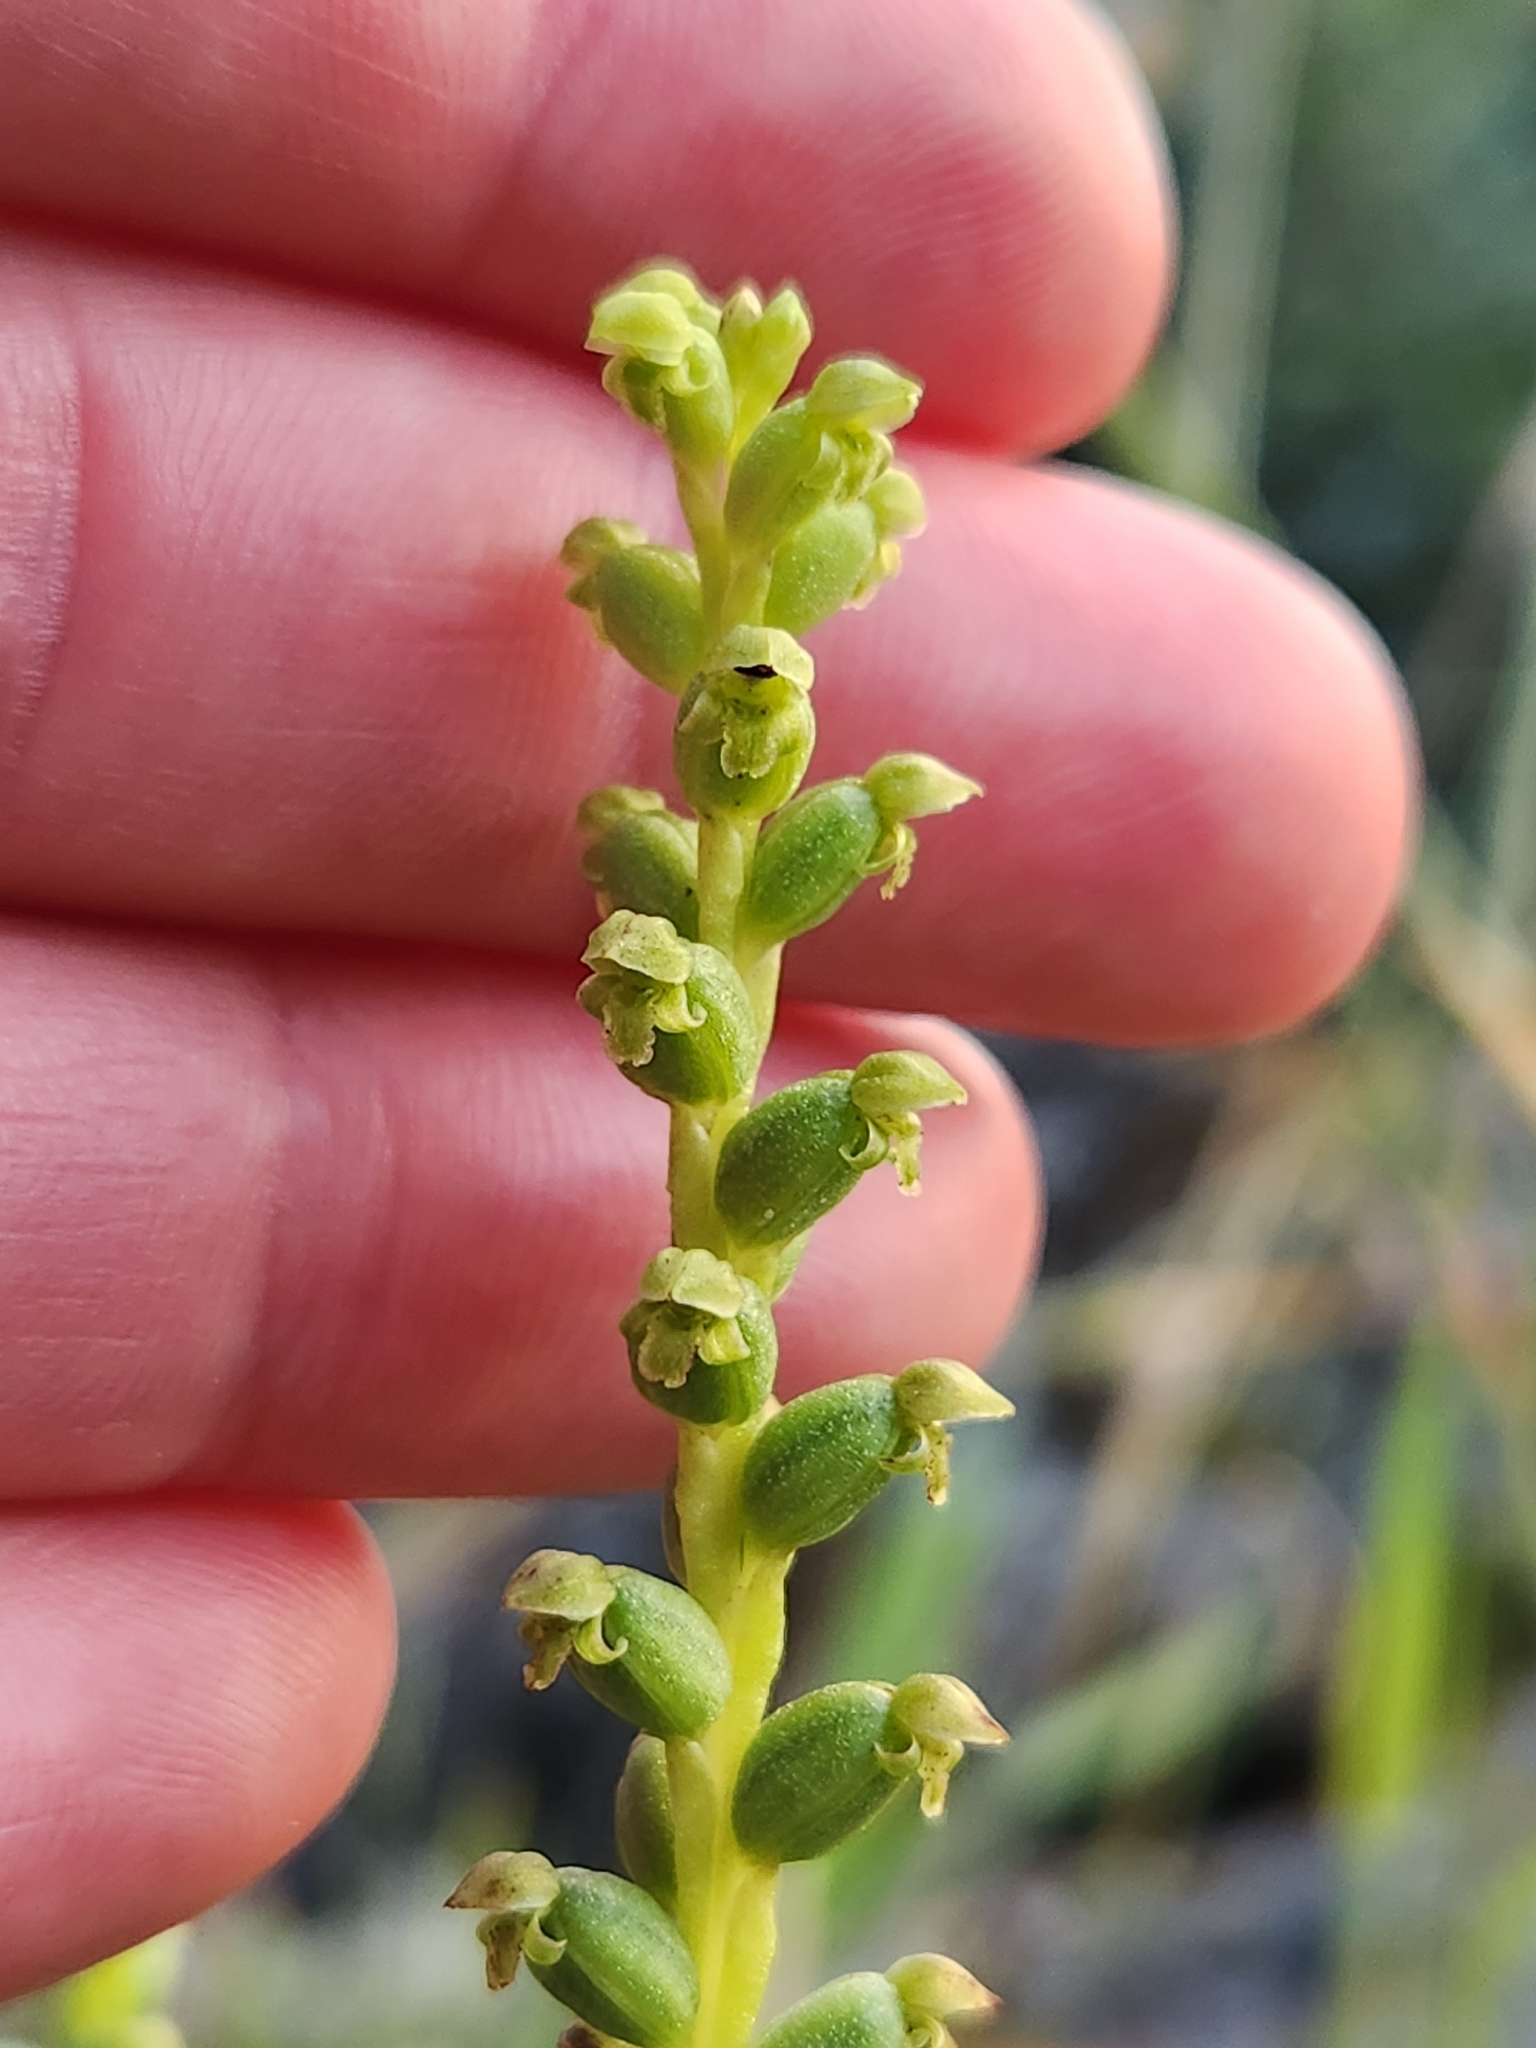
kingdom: Plantae
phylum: Tracheophyta
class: Liliopsida
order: Asparagales
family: Orchidaceae
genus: Microtis
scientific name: Microtis unifolia
